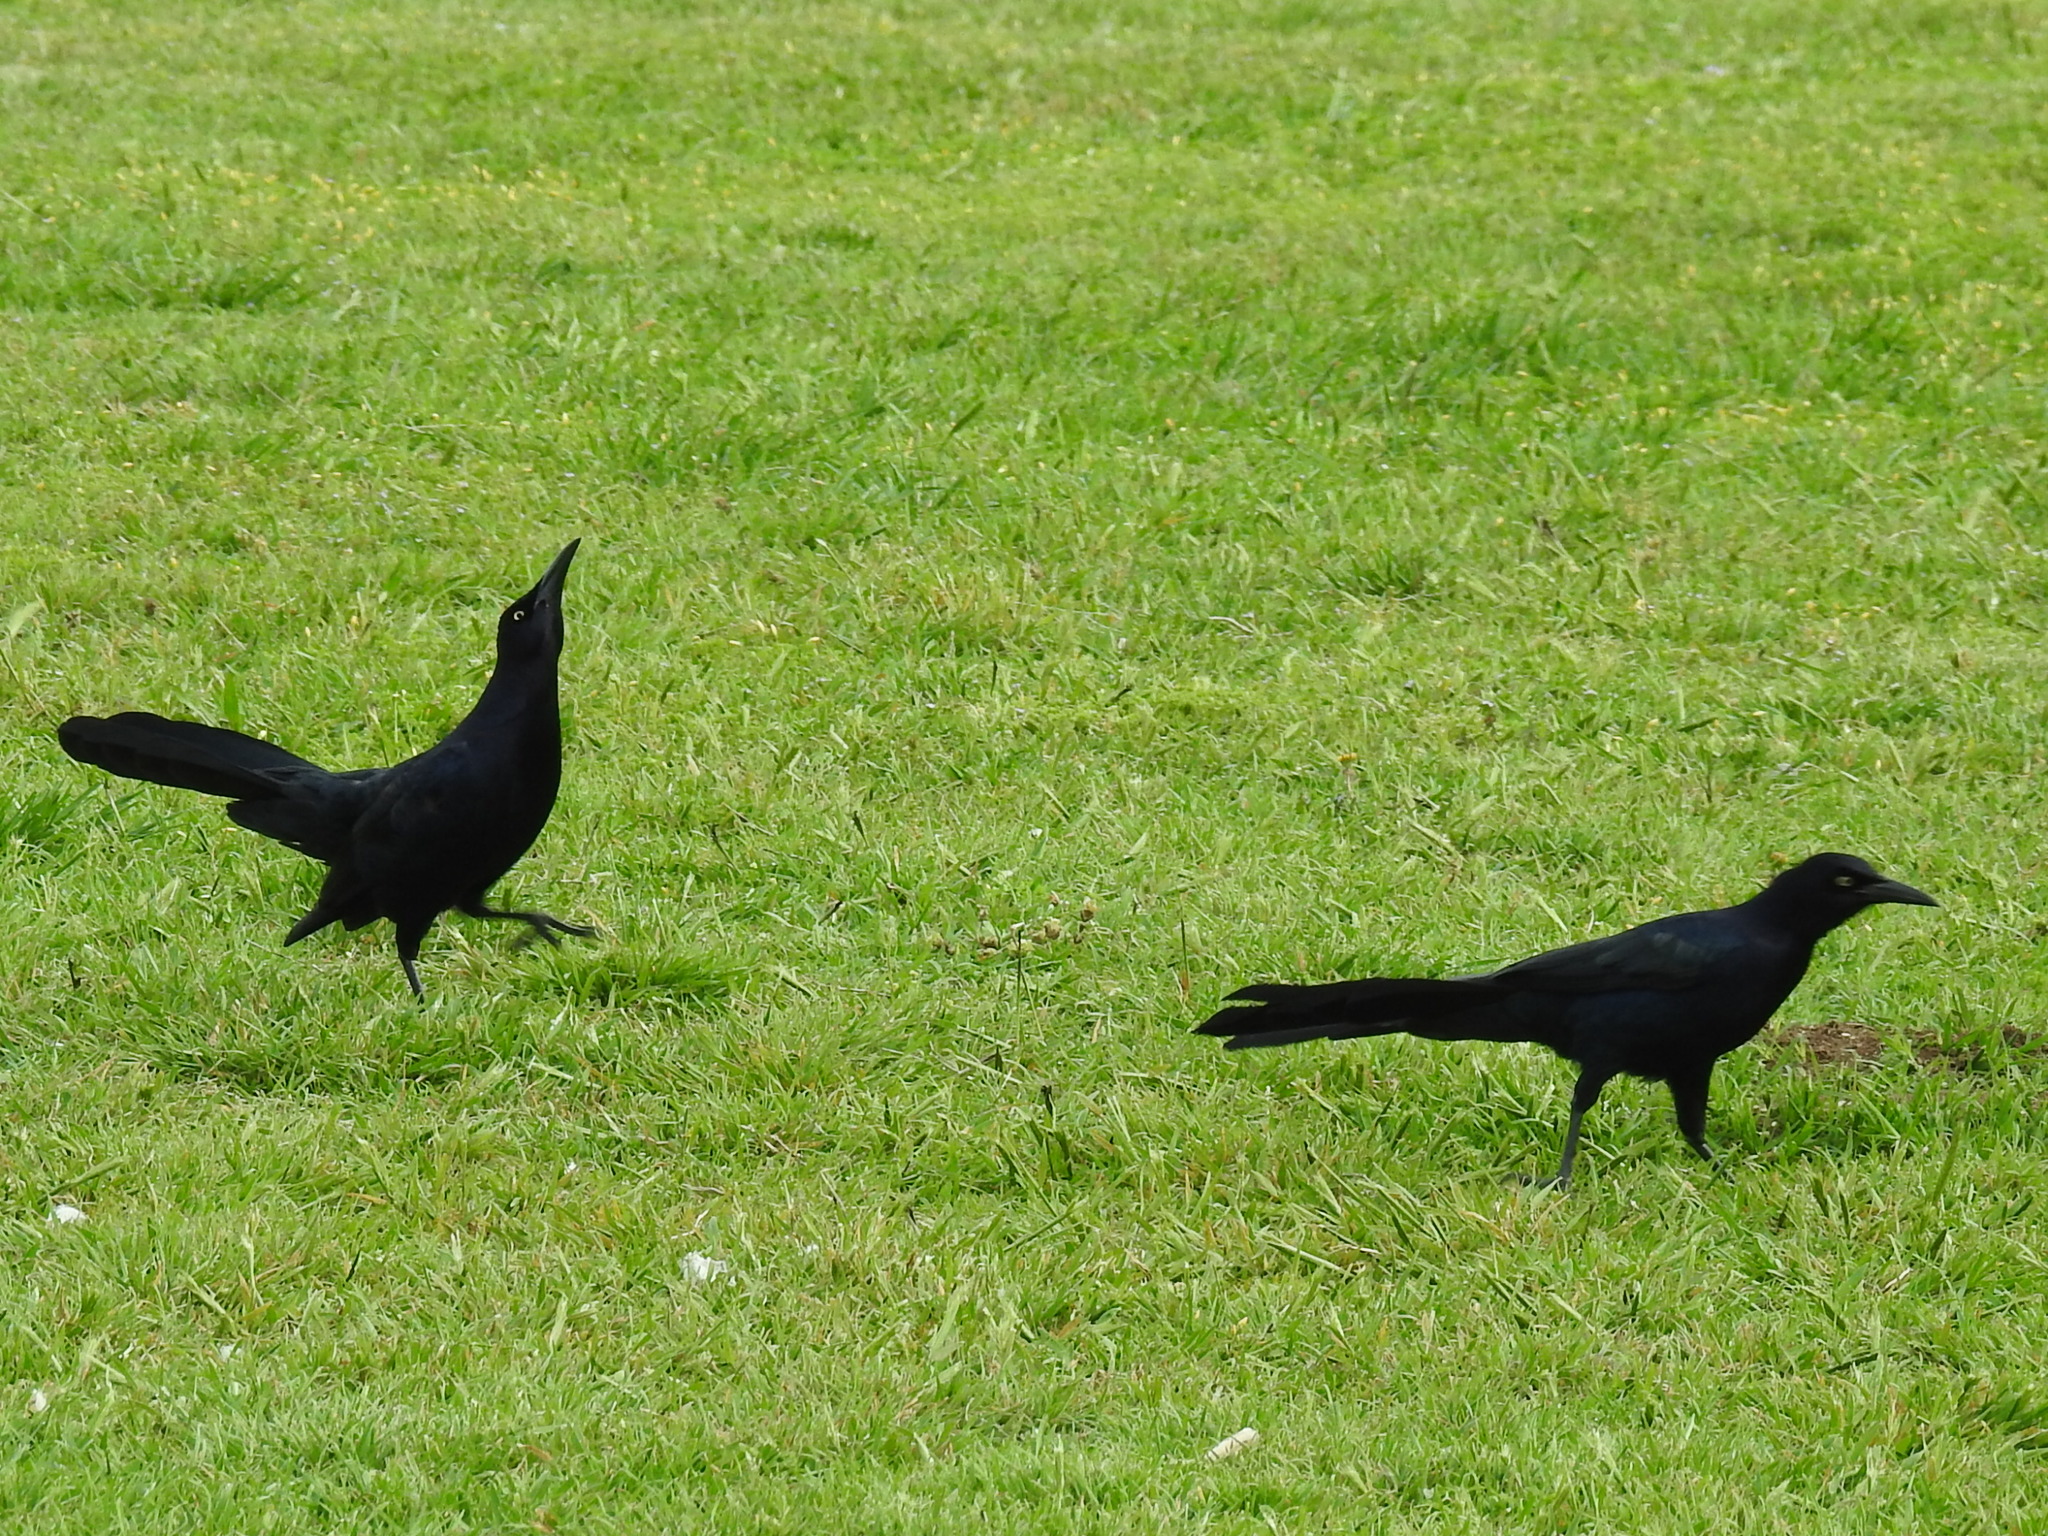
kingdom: Animalia
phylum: Chordata
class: Aves
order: Passeriformes
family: Icteridae
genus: Quiscalus
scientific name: Quiscalus mexicanus
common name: Great-tailed grackle
